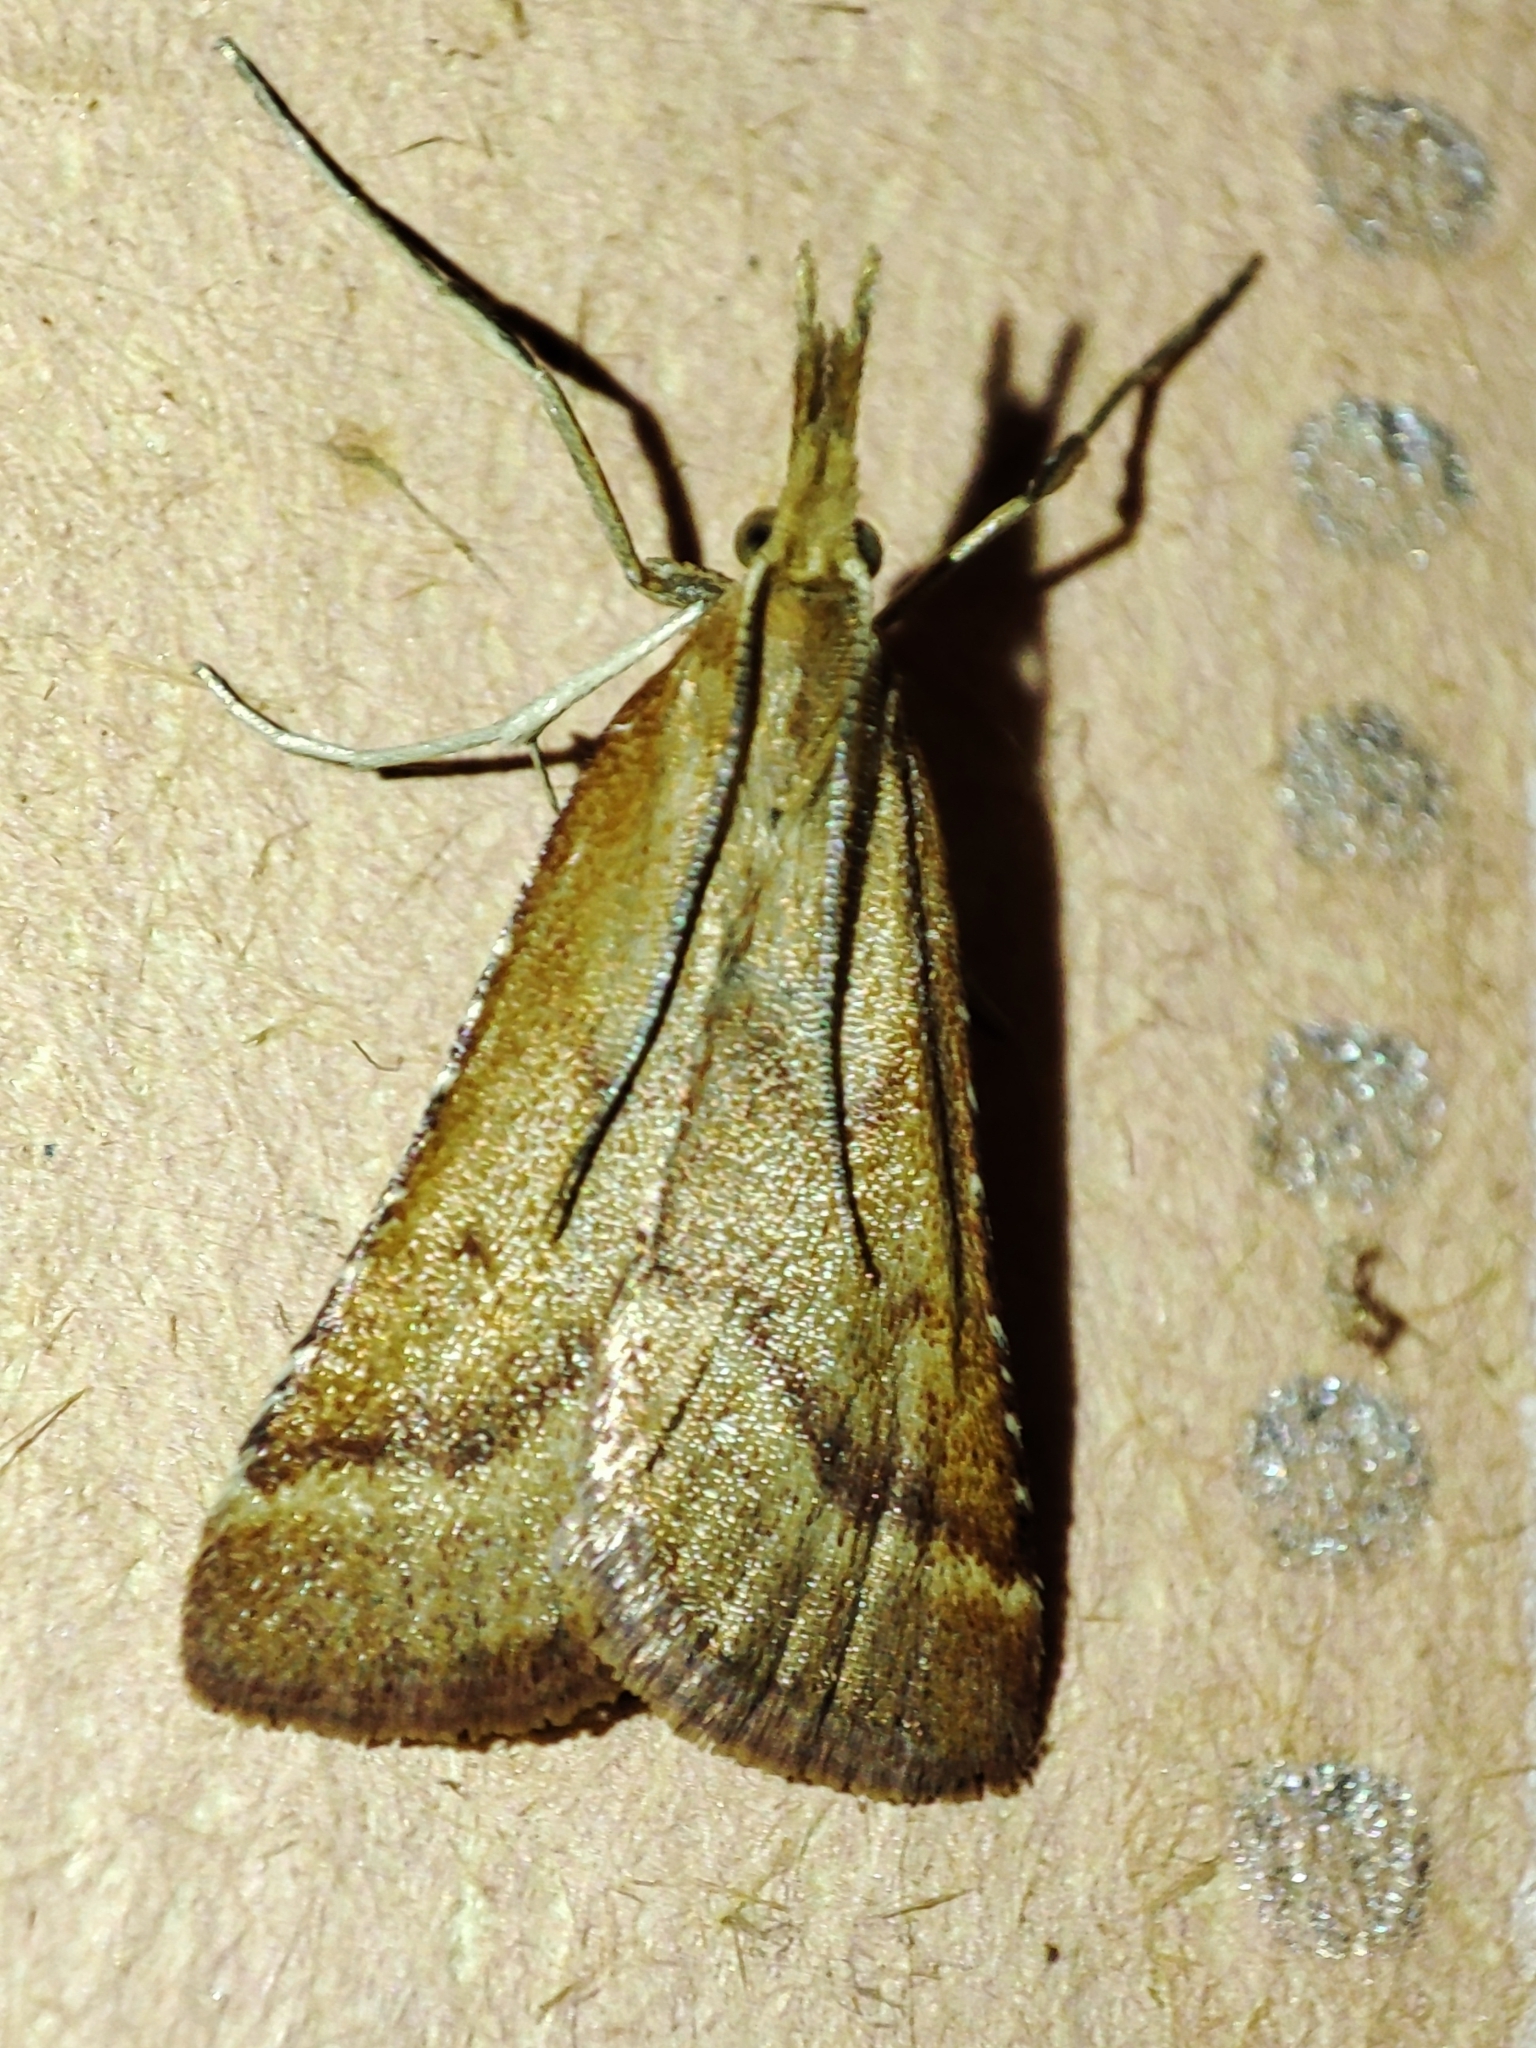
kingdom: Animalia
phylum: Arthropoda
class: Insecta
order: Lepidoptera
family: Pyralidae
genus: Synaphe
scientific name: Synaphe punctalis
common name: Long-legged tabby
